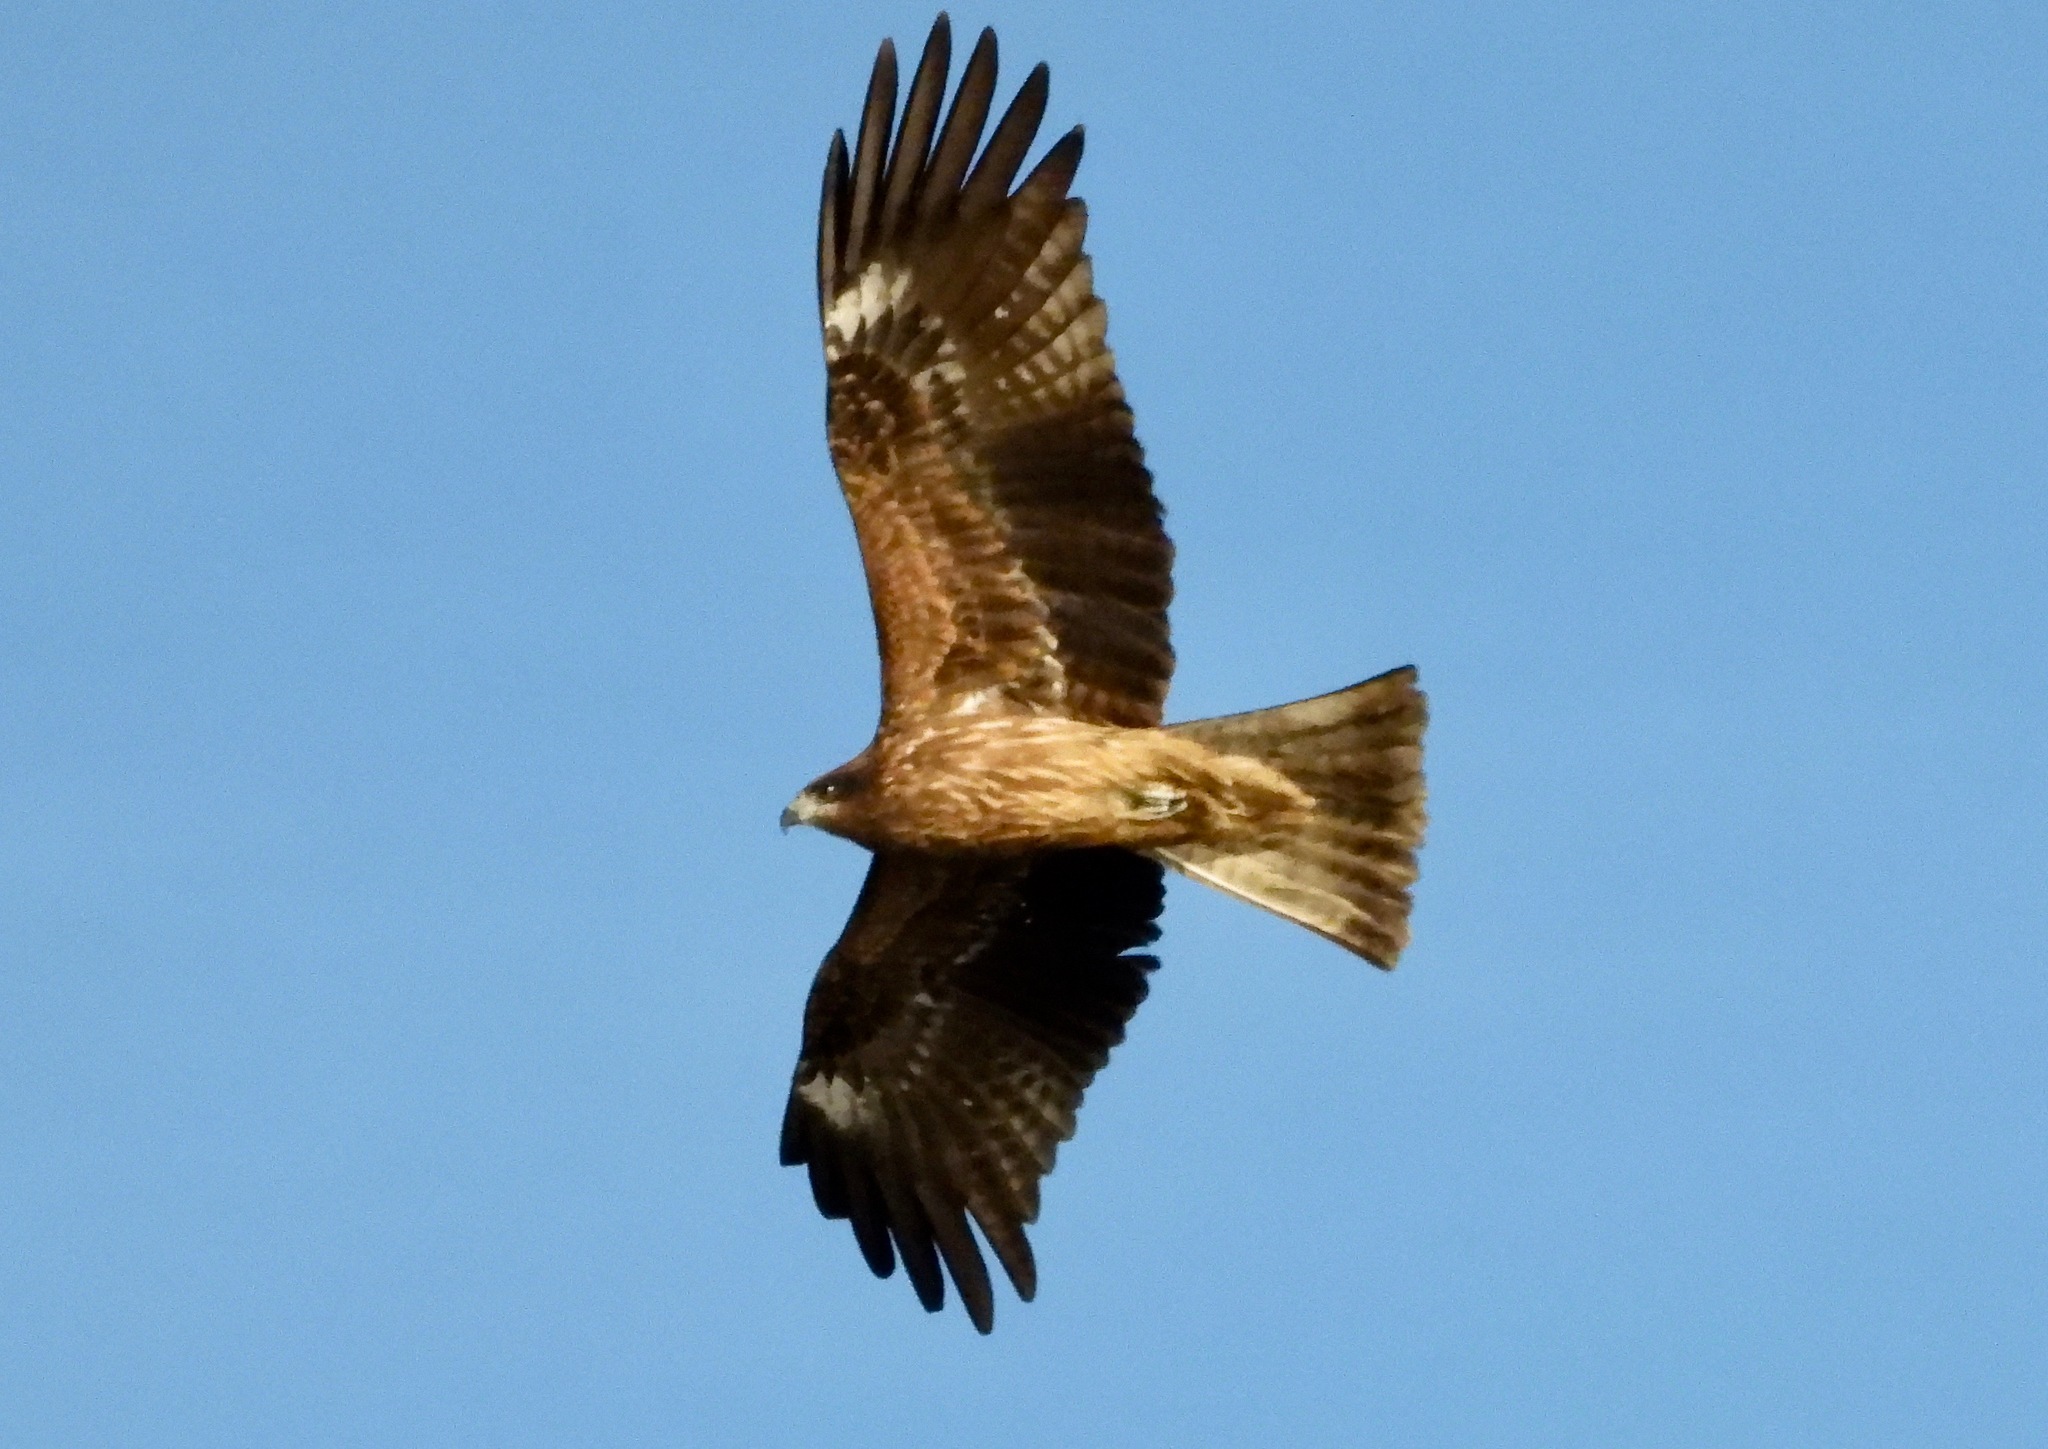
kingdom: Animalia
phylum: Chordata
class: Aves
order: Accipitriformes
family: Accipitridae
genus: Milvus
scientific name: Milvus migrans
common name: Black kite
